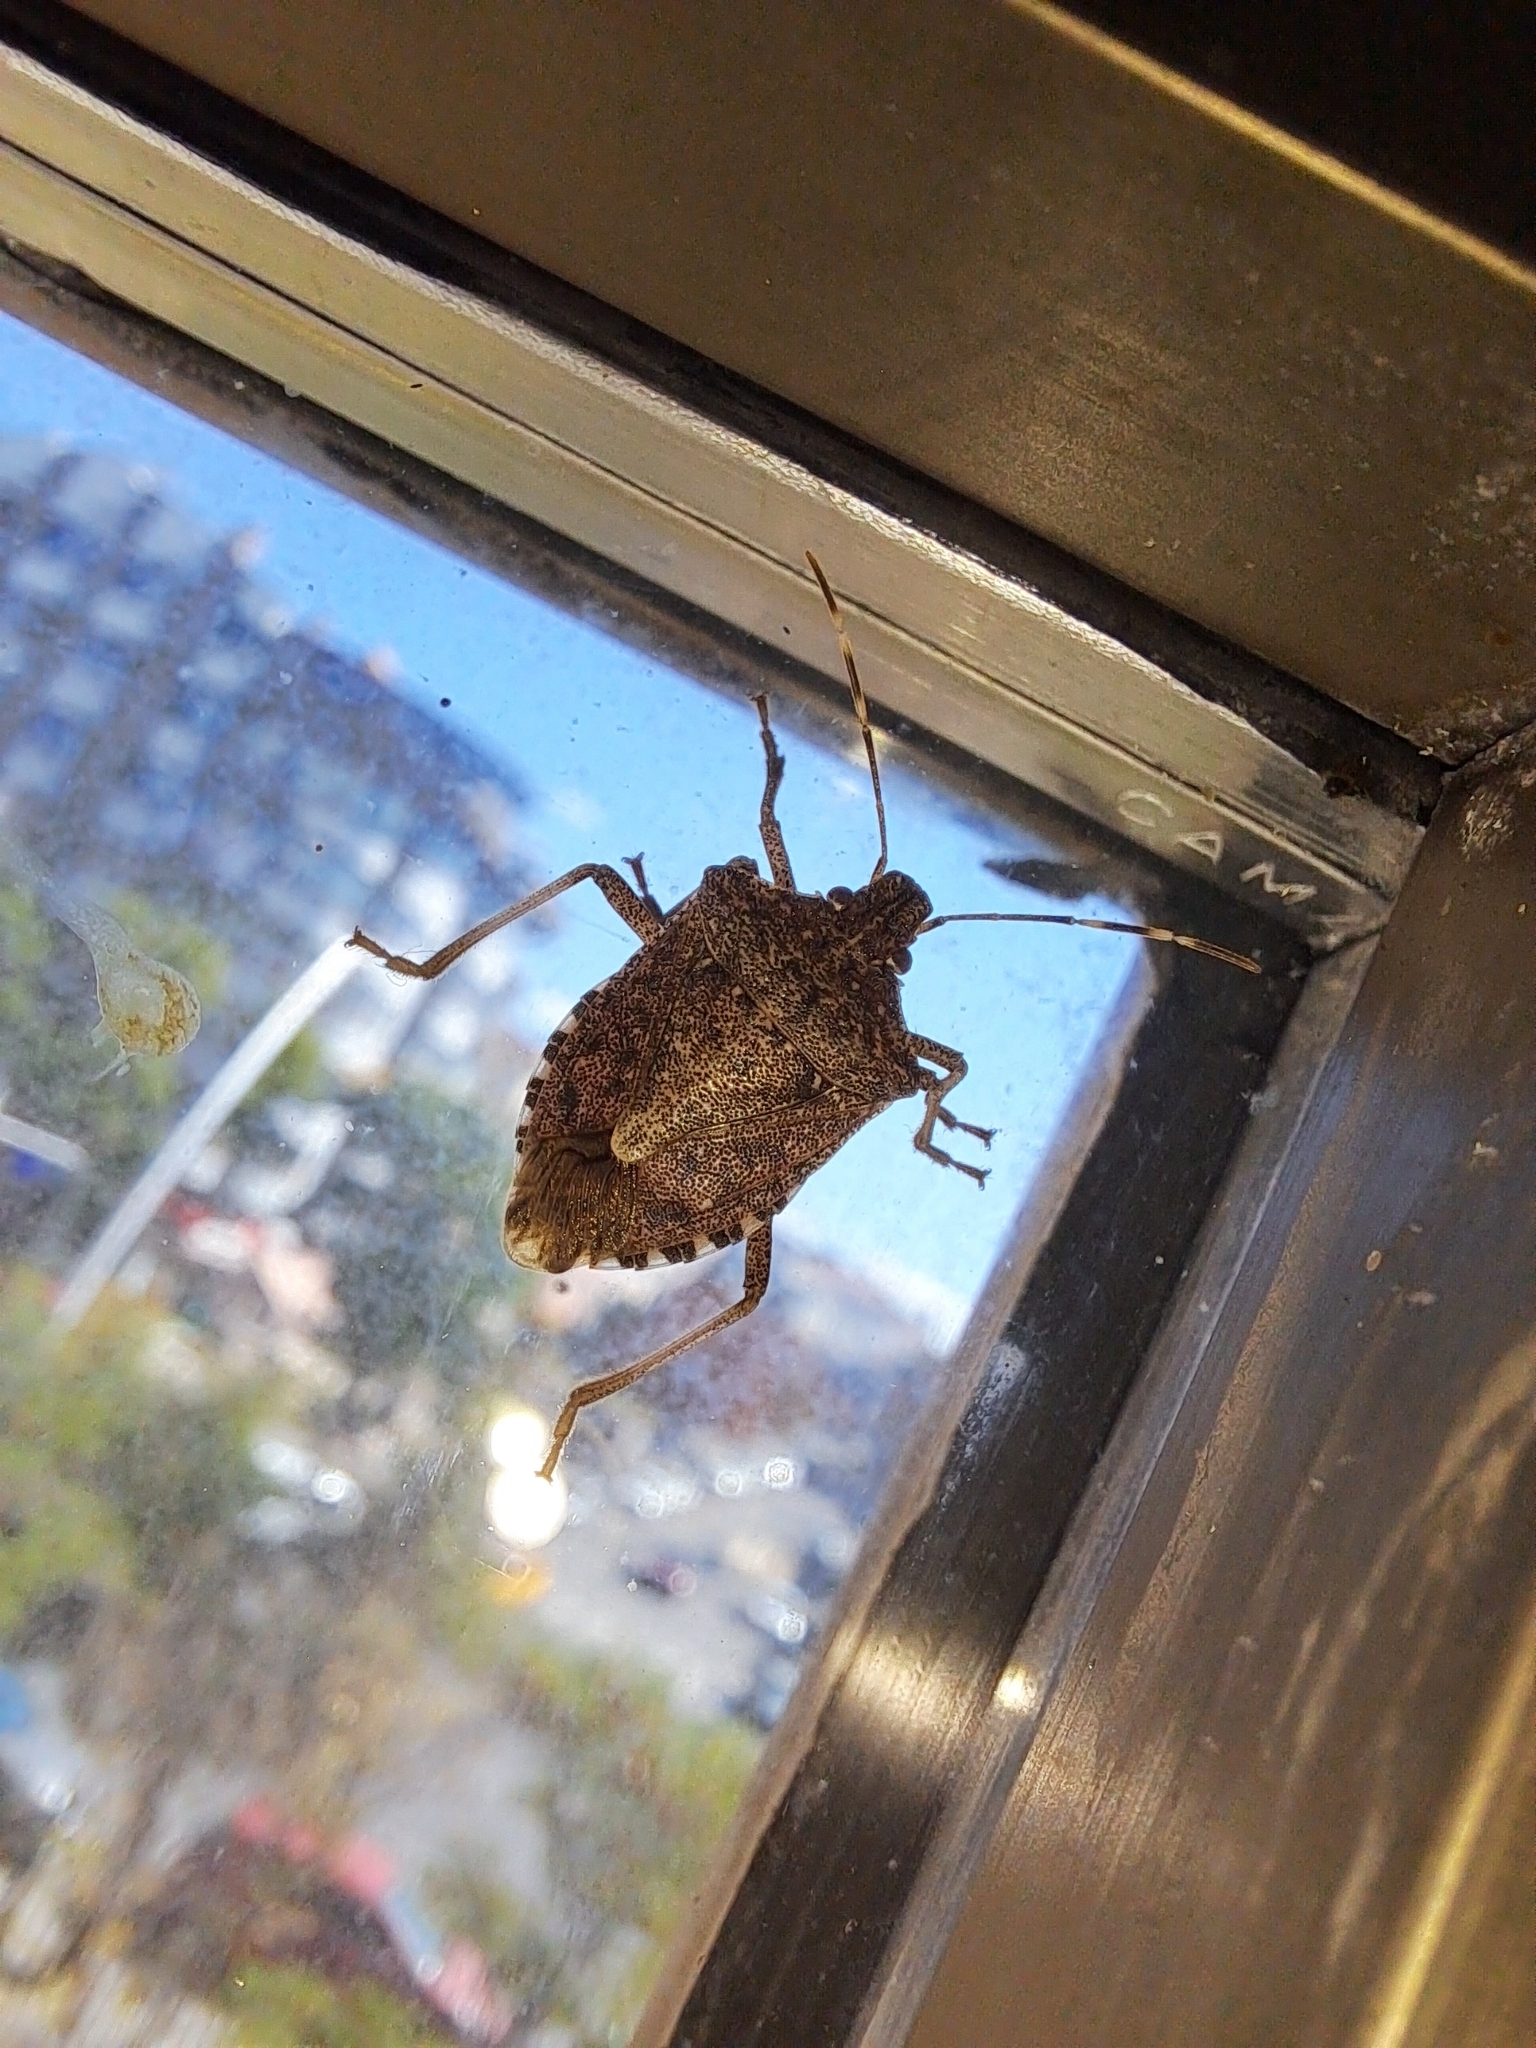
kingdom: Animalia
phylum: Arthropoda
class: Insecta
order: Hemiptera
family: Pentatomidae
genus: Halyomorpha
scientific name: Halyomorpha halys
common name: Brown marmorated stink bug
